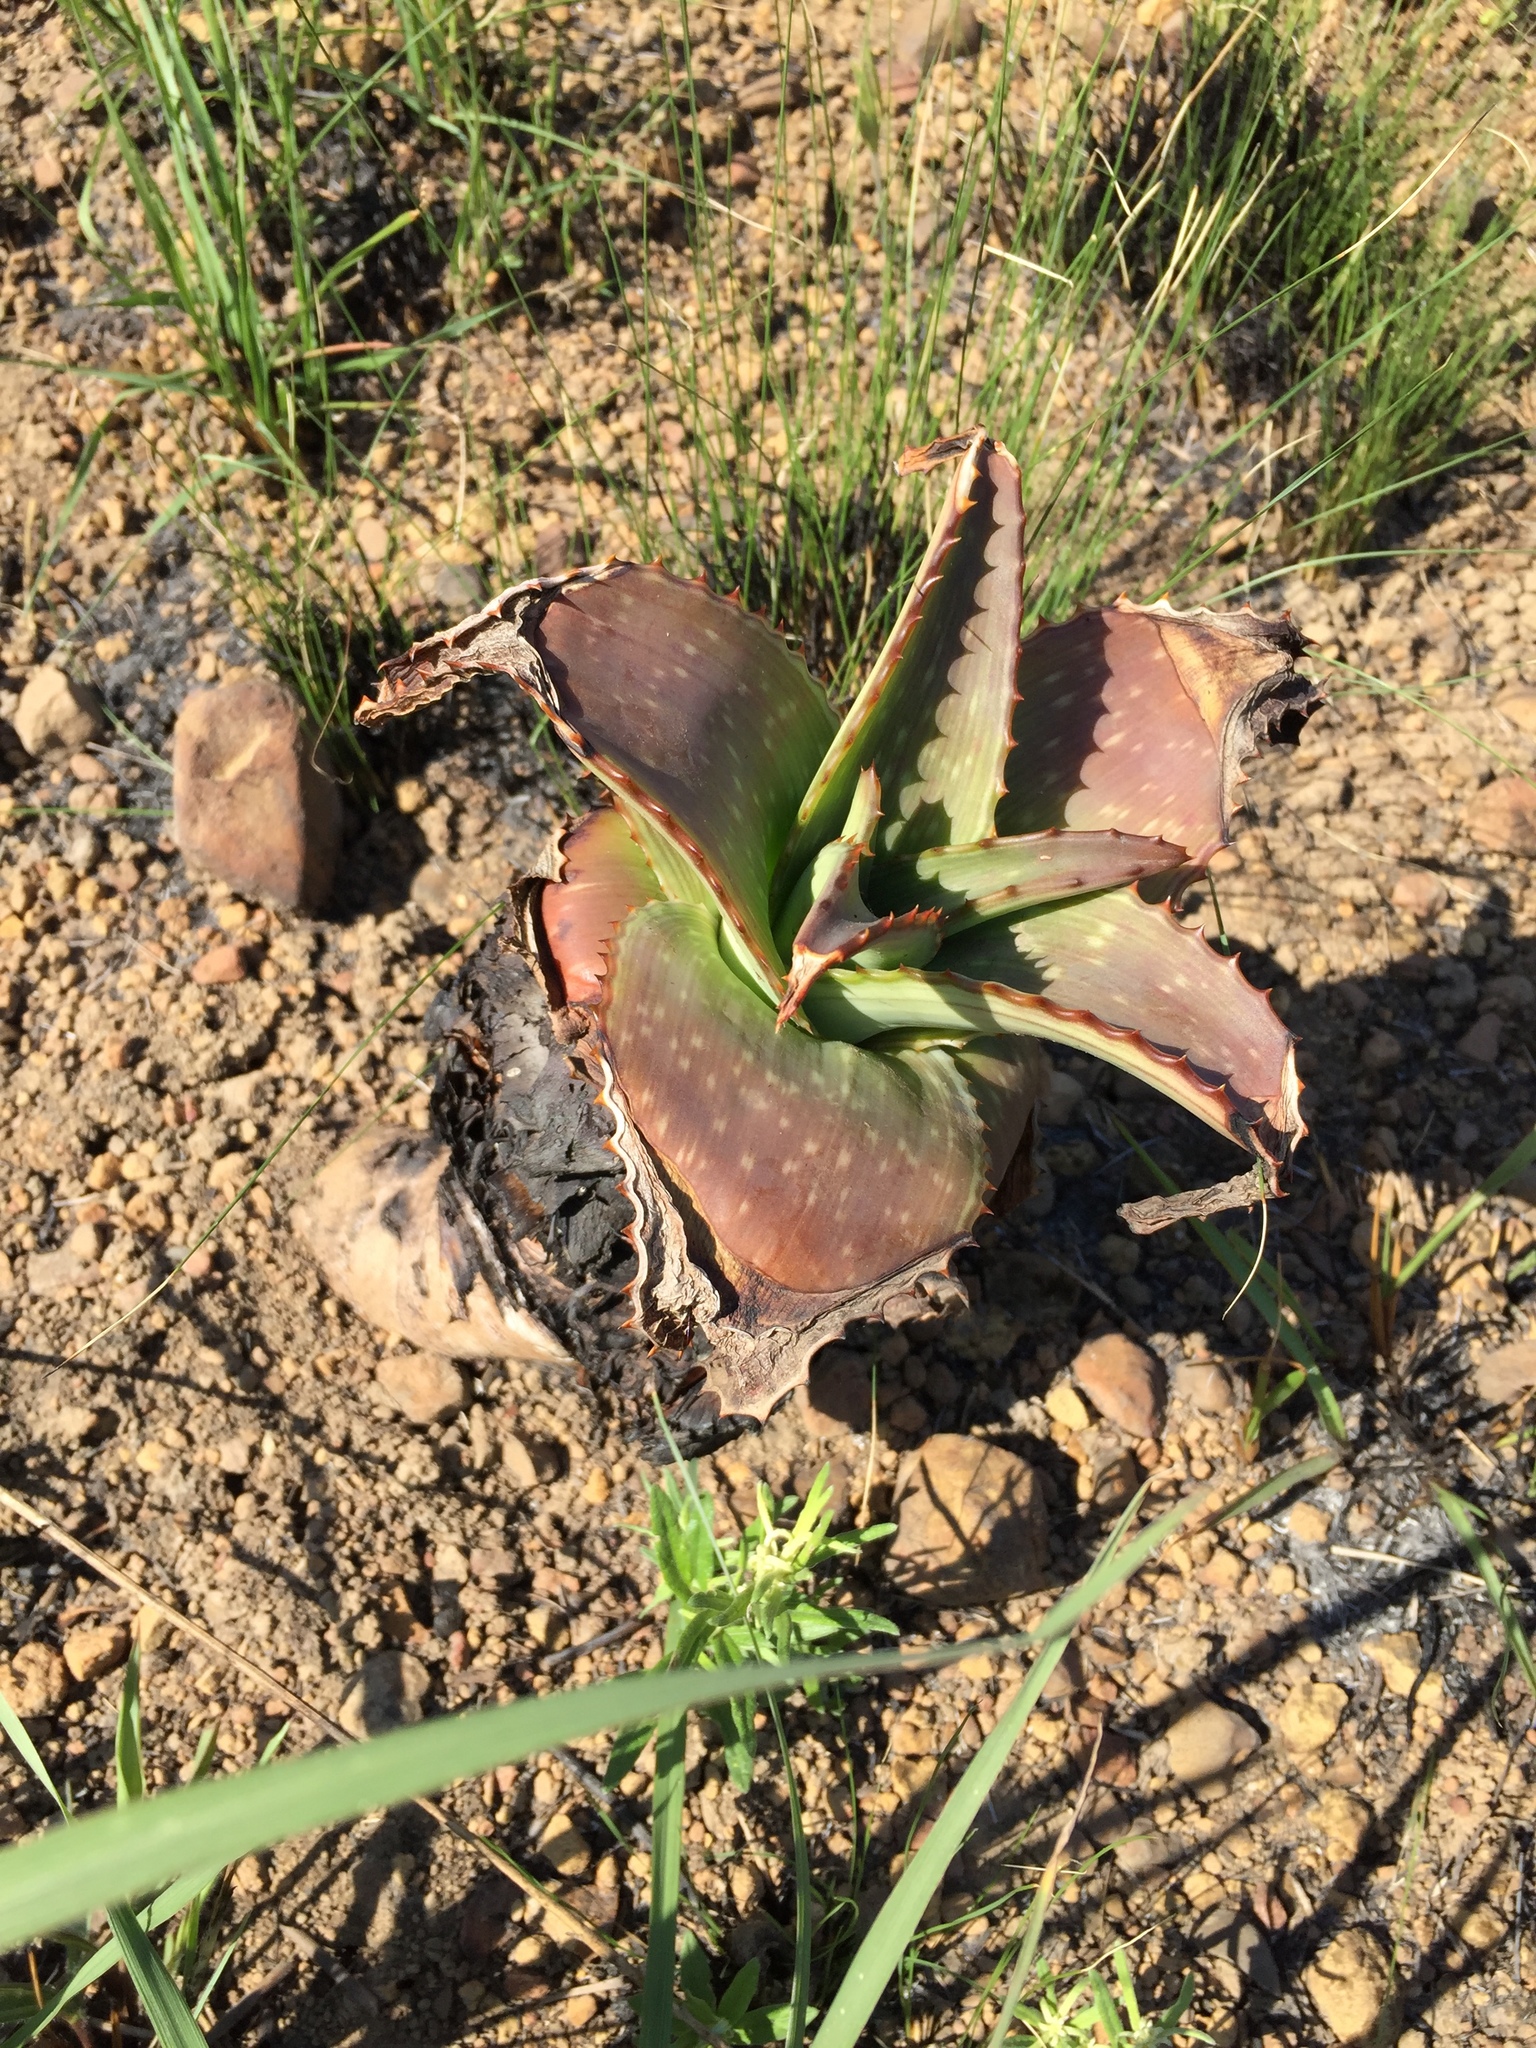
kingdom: Plantae
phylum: Tracheophyta
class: Liliopsida
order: Asparagales
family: Asphodelaceae
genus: Aloe
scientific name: Aloe maculata
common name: Broadleaf aloe
